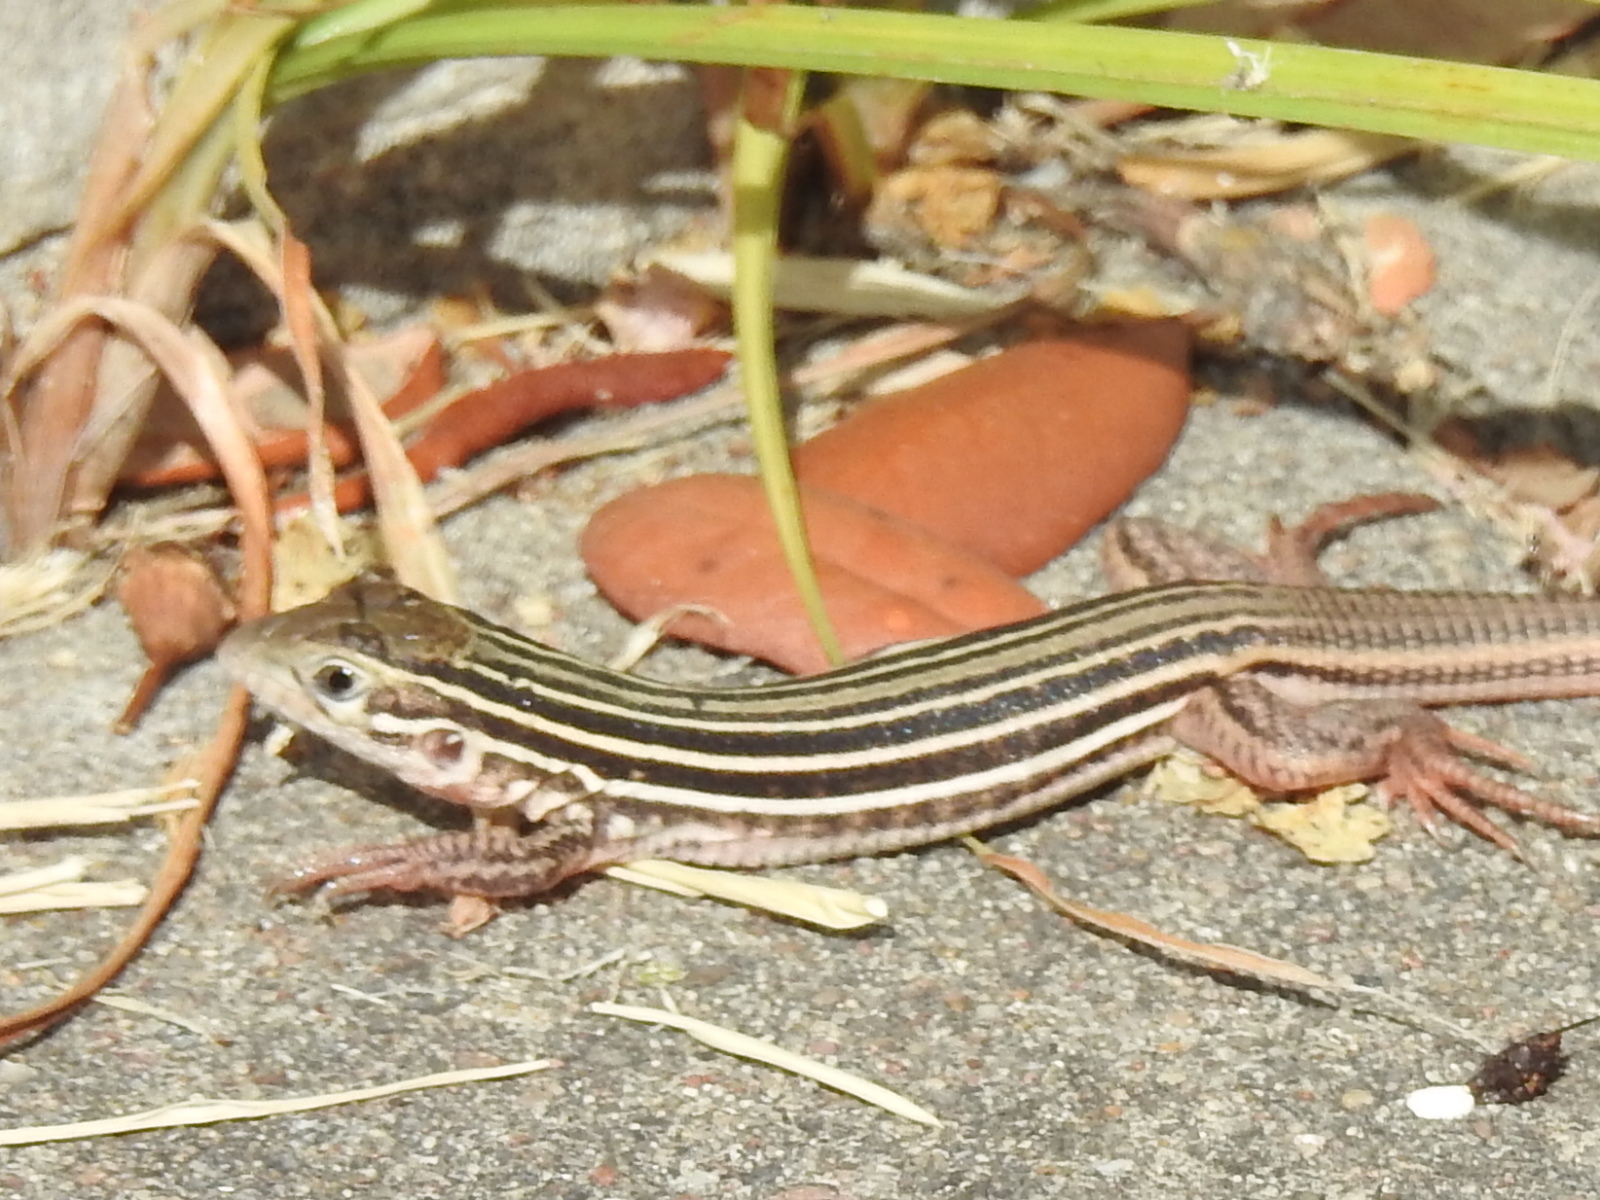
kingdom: Animalia
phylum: Chordata
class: Squamata
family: Teiidae
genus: Aspidoscelis
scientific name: Aspidoscelis gularis
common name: Eastern spotted whiptail
